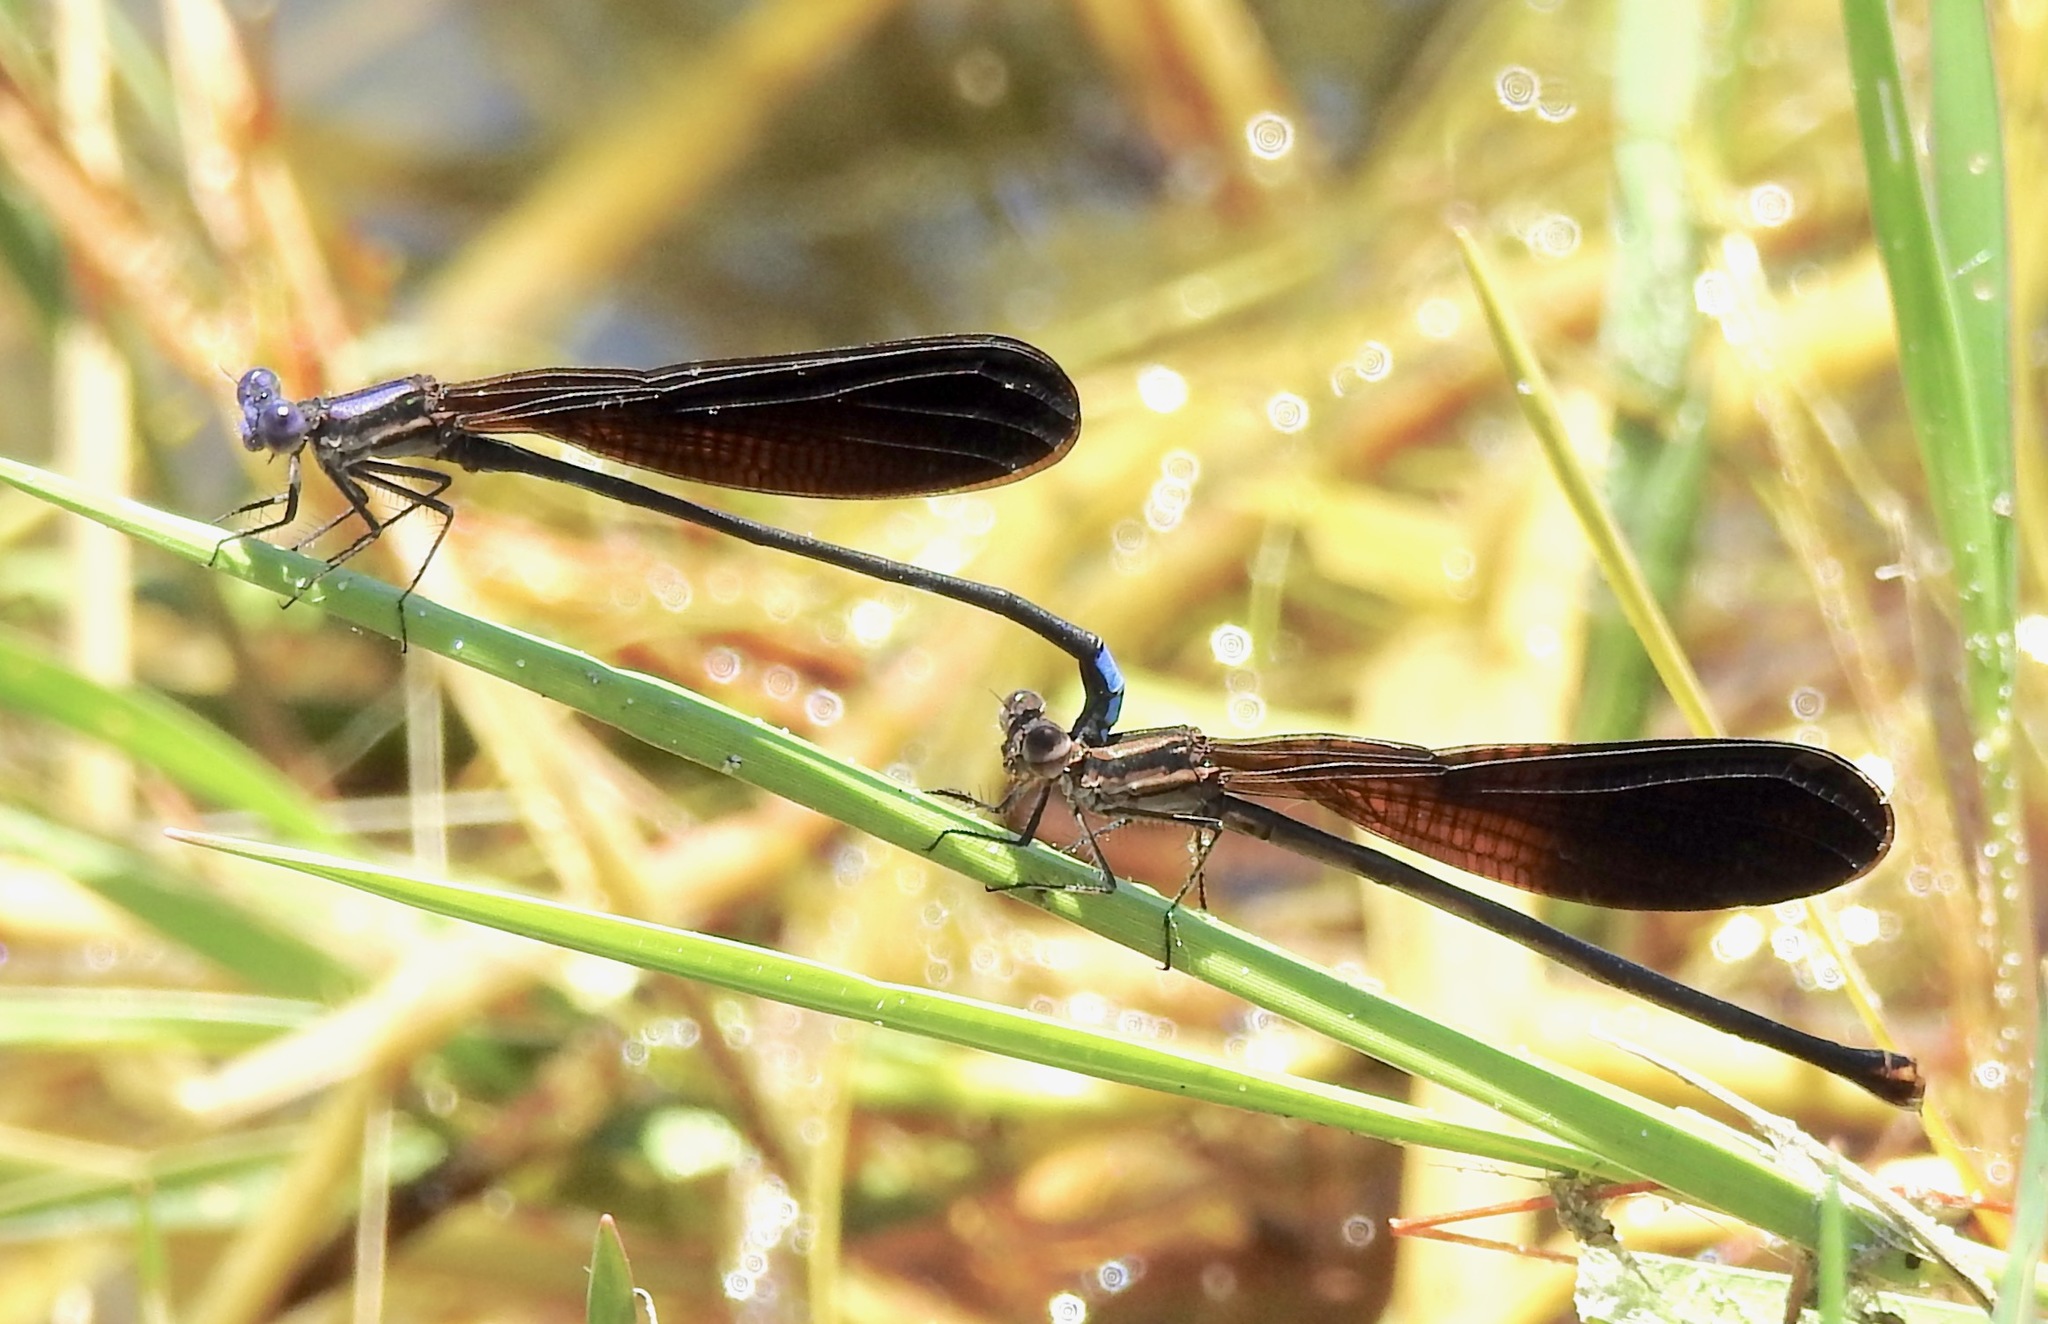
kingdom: Animalia
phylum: Arthropoda
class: Insecta
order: Odonata
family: Coenagrionidae
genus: Argia
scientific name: Argia fumipennis
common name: Variable dancer
